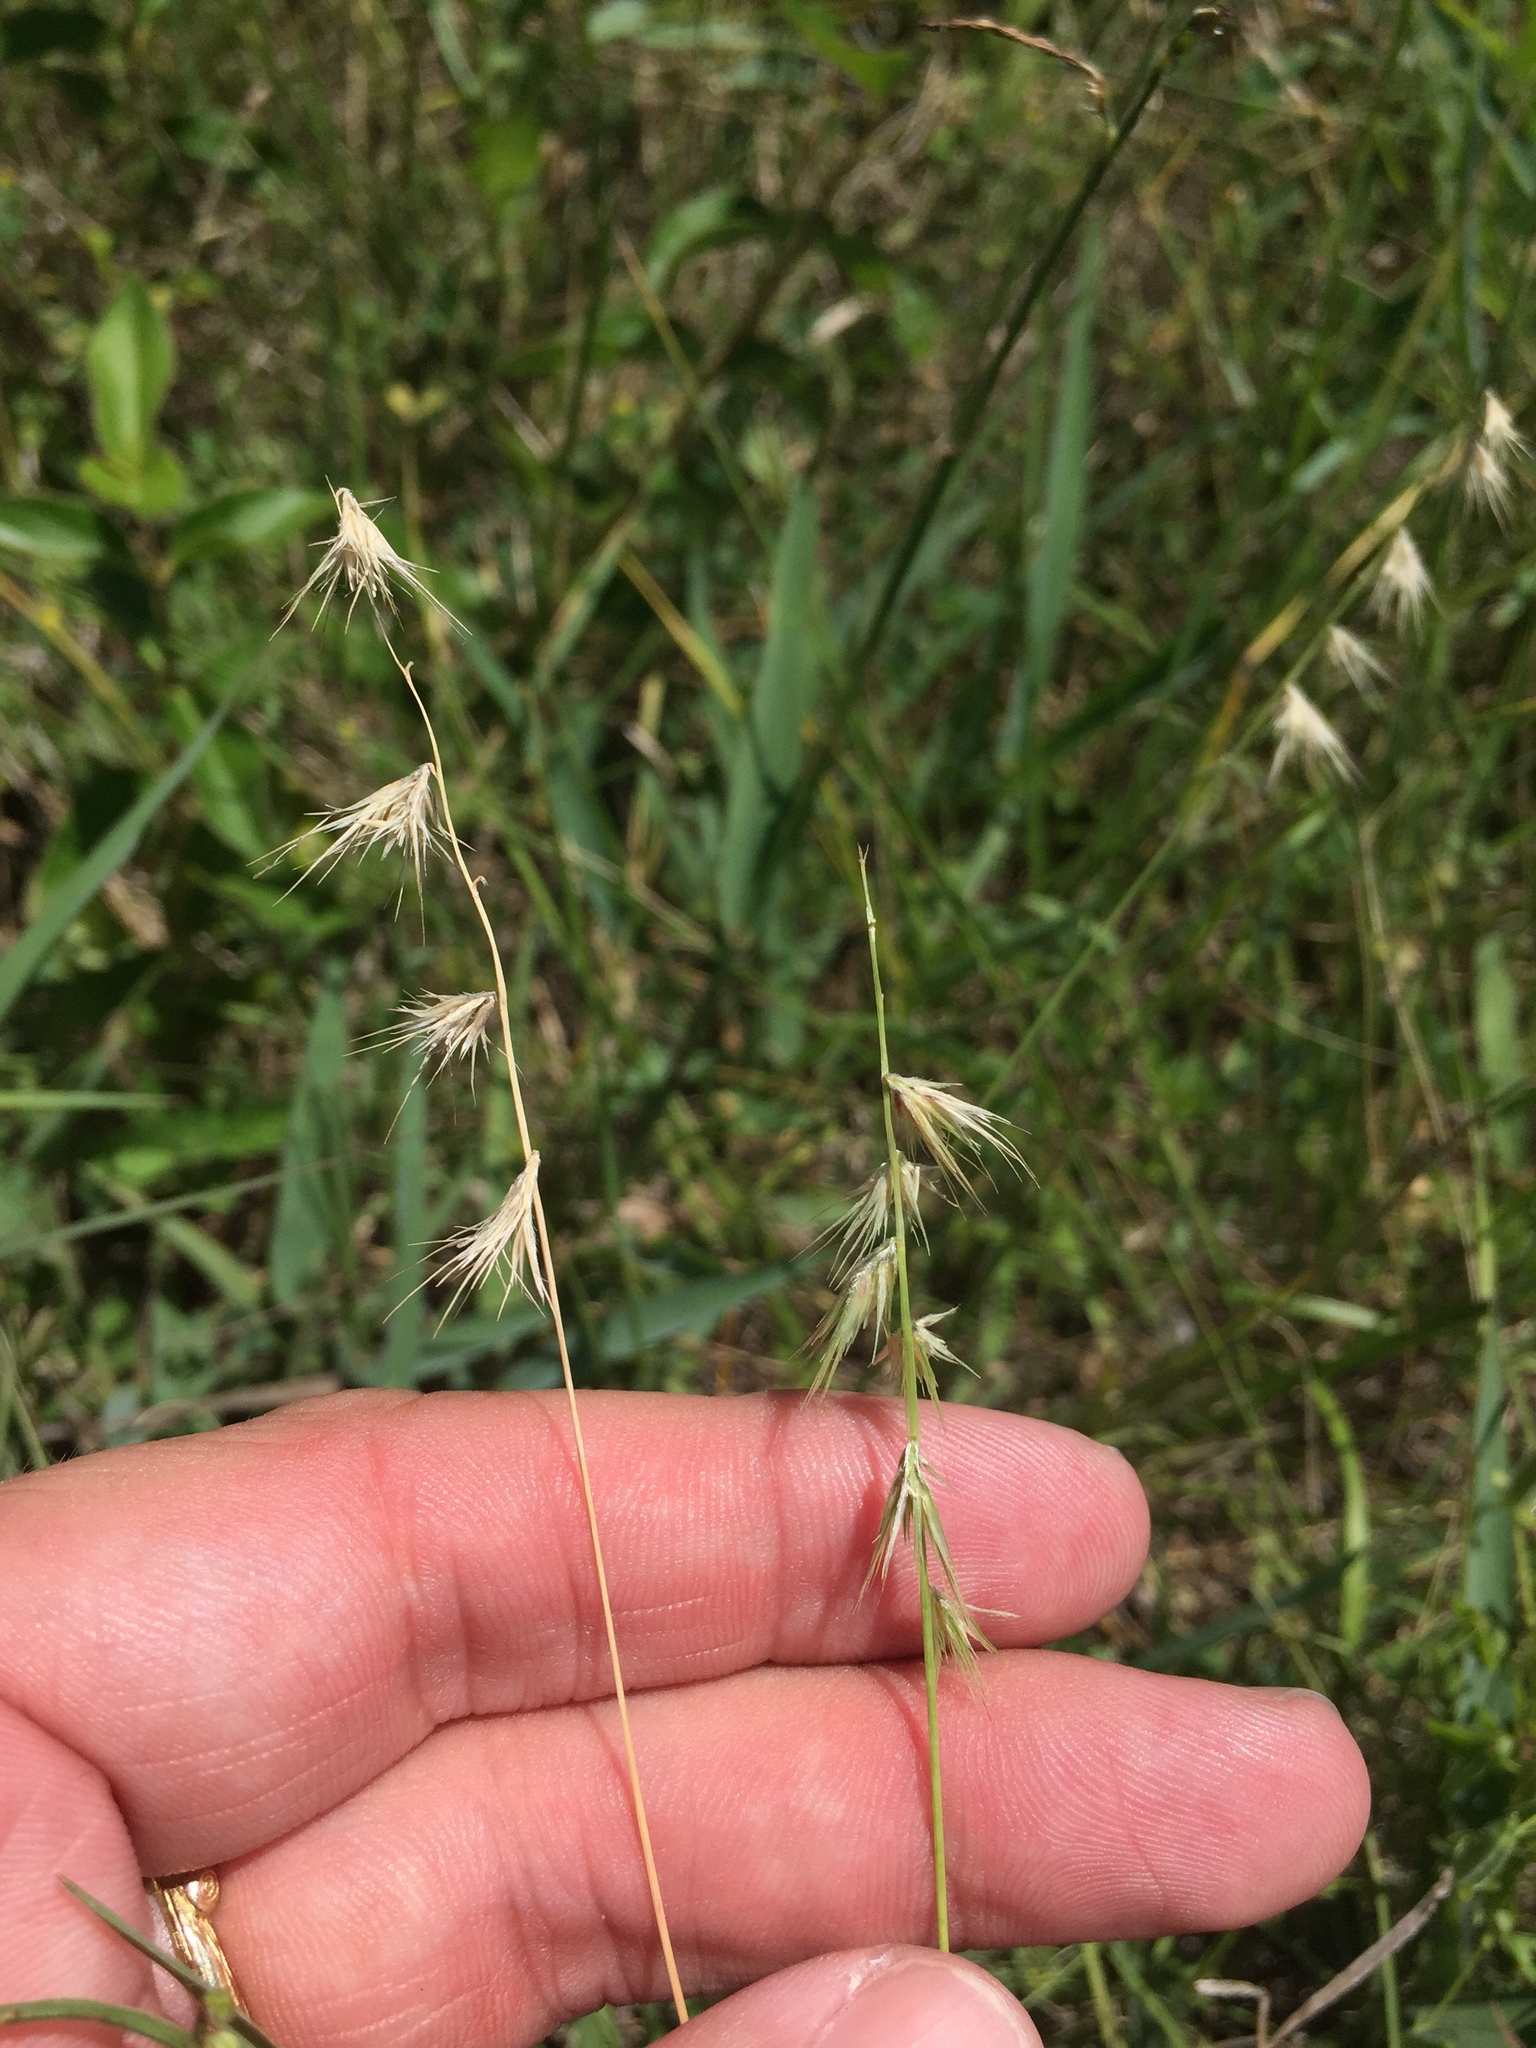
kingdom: Plantae
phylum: Tracheophyta
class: Liliopsida
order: Poales
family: Poaceae
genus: Bouteloua
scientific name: Bouteloua rigidiseta
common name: Texas grama
